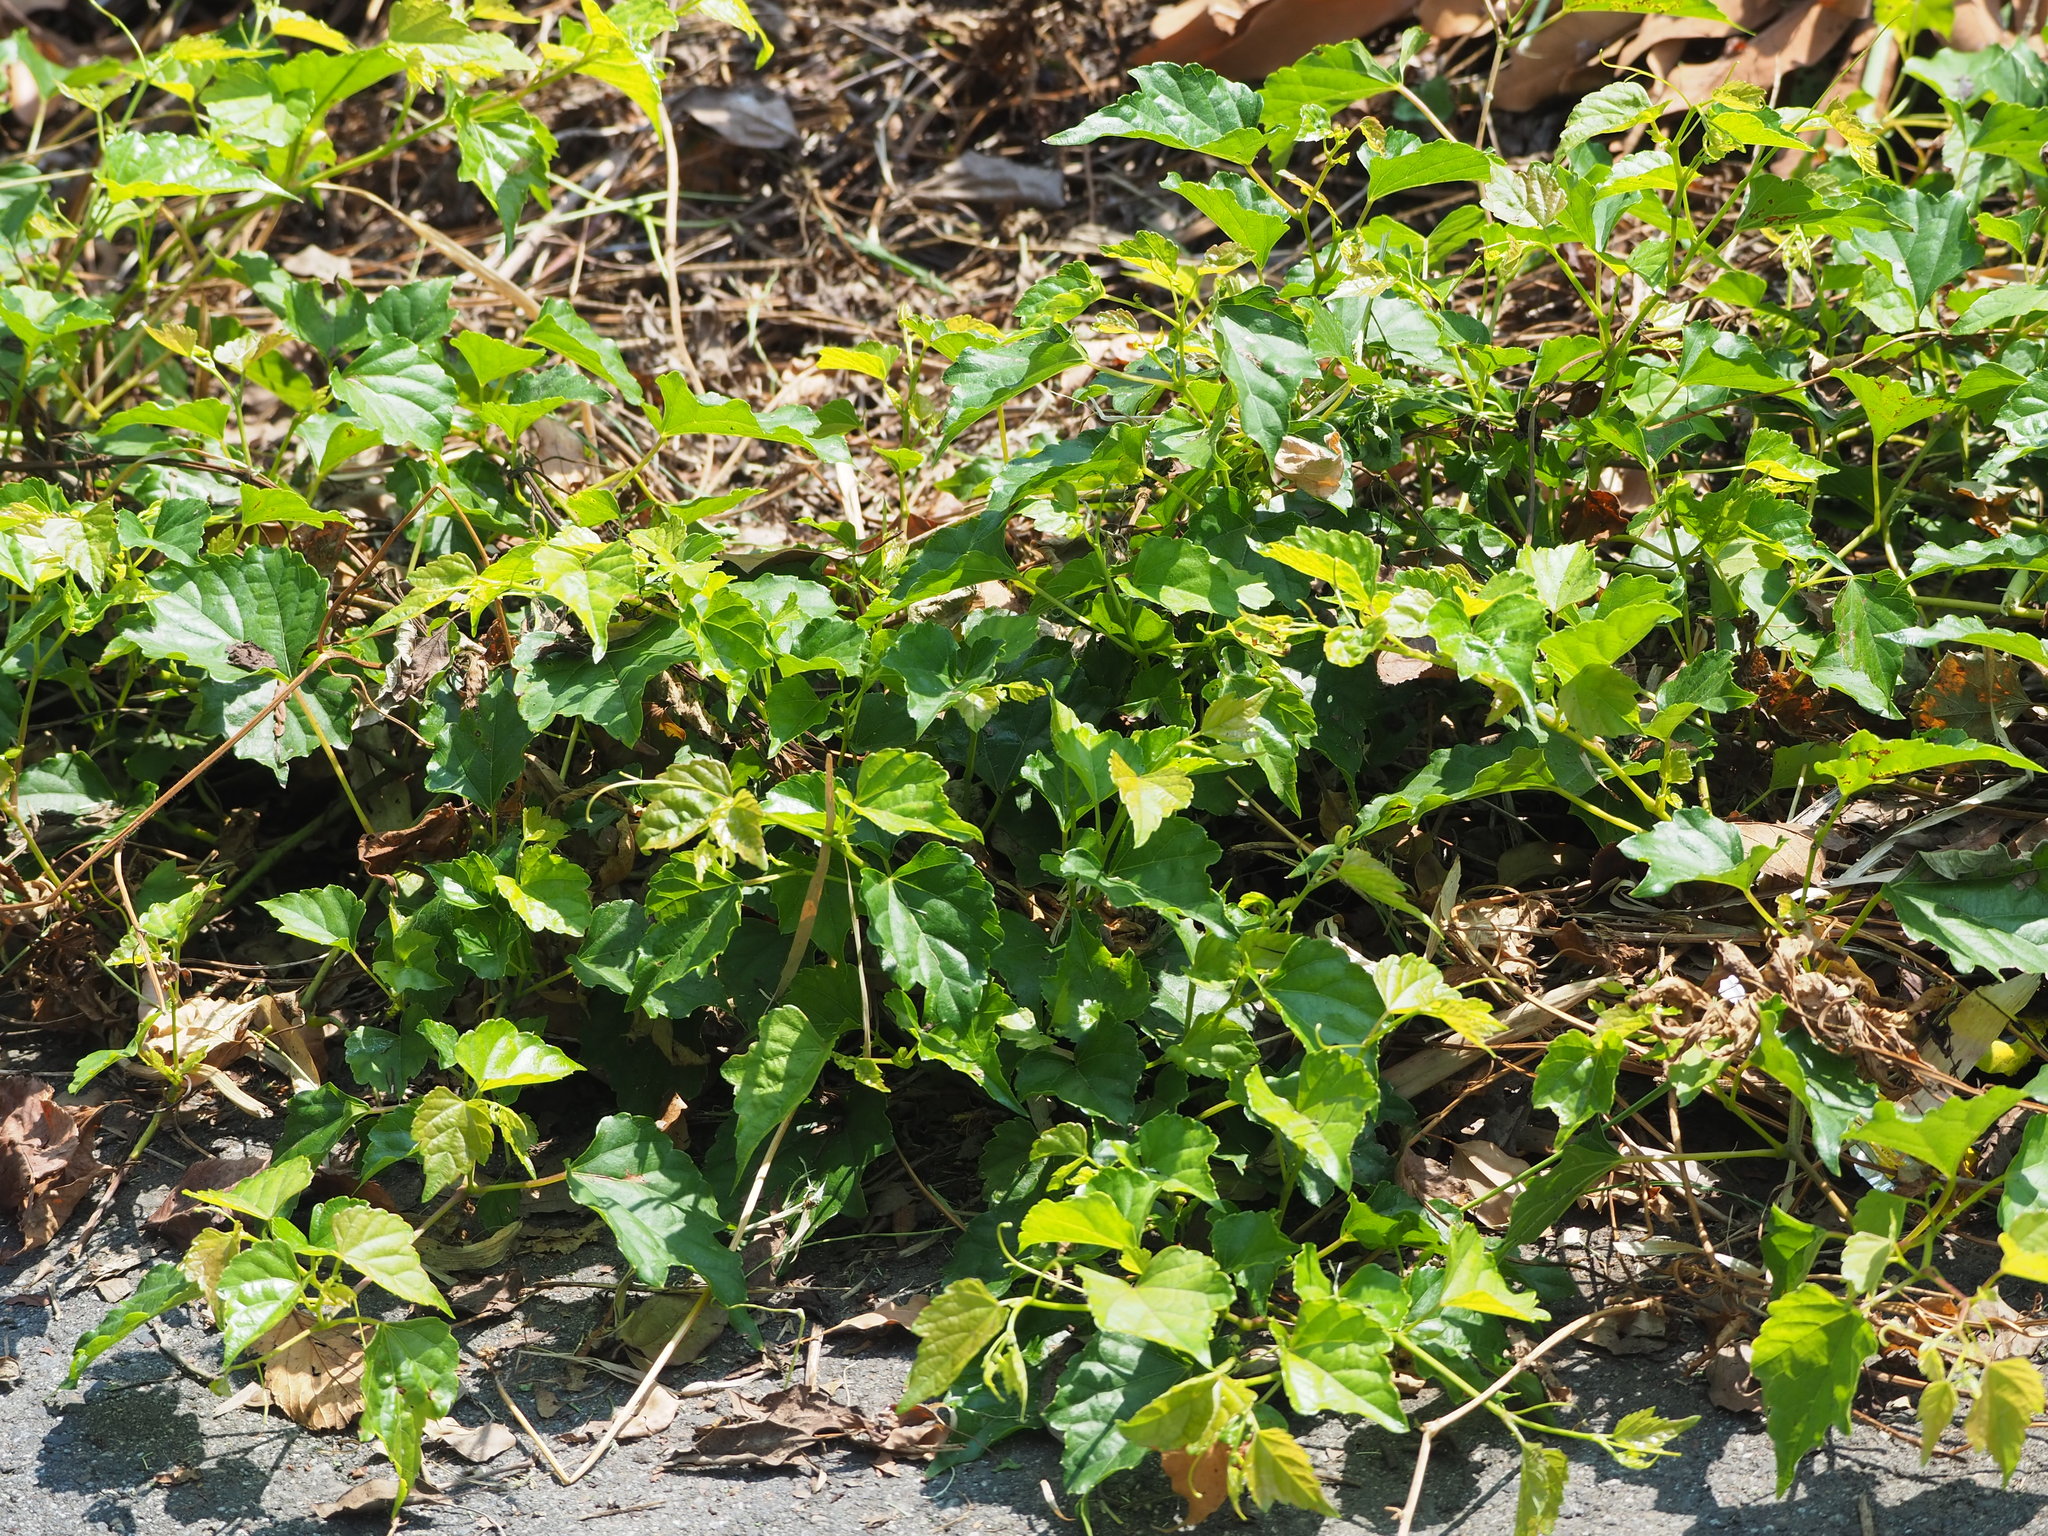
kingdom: Plantae
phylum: Tracheophyta
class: Magnoliopsida
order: Vitales
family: Vitaceae
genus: Ampelopsis
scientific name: Ampelopsis glandulosa
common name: Amur peppervine
